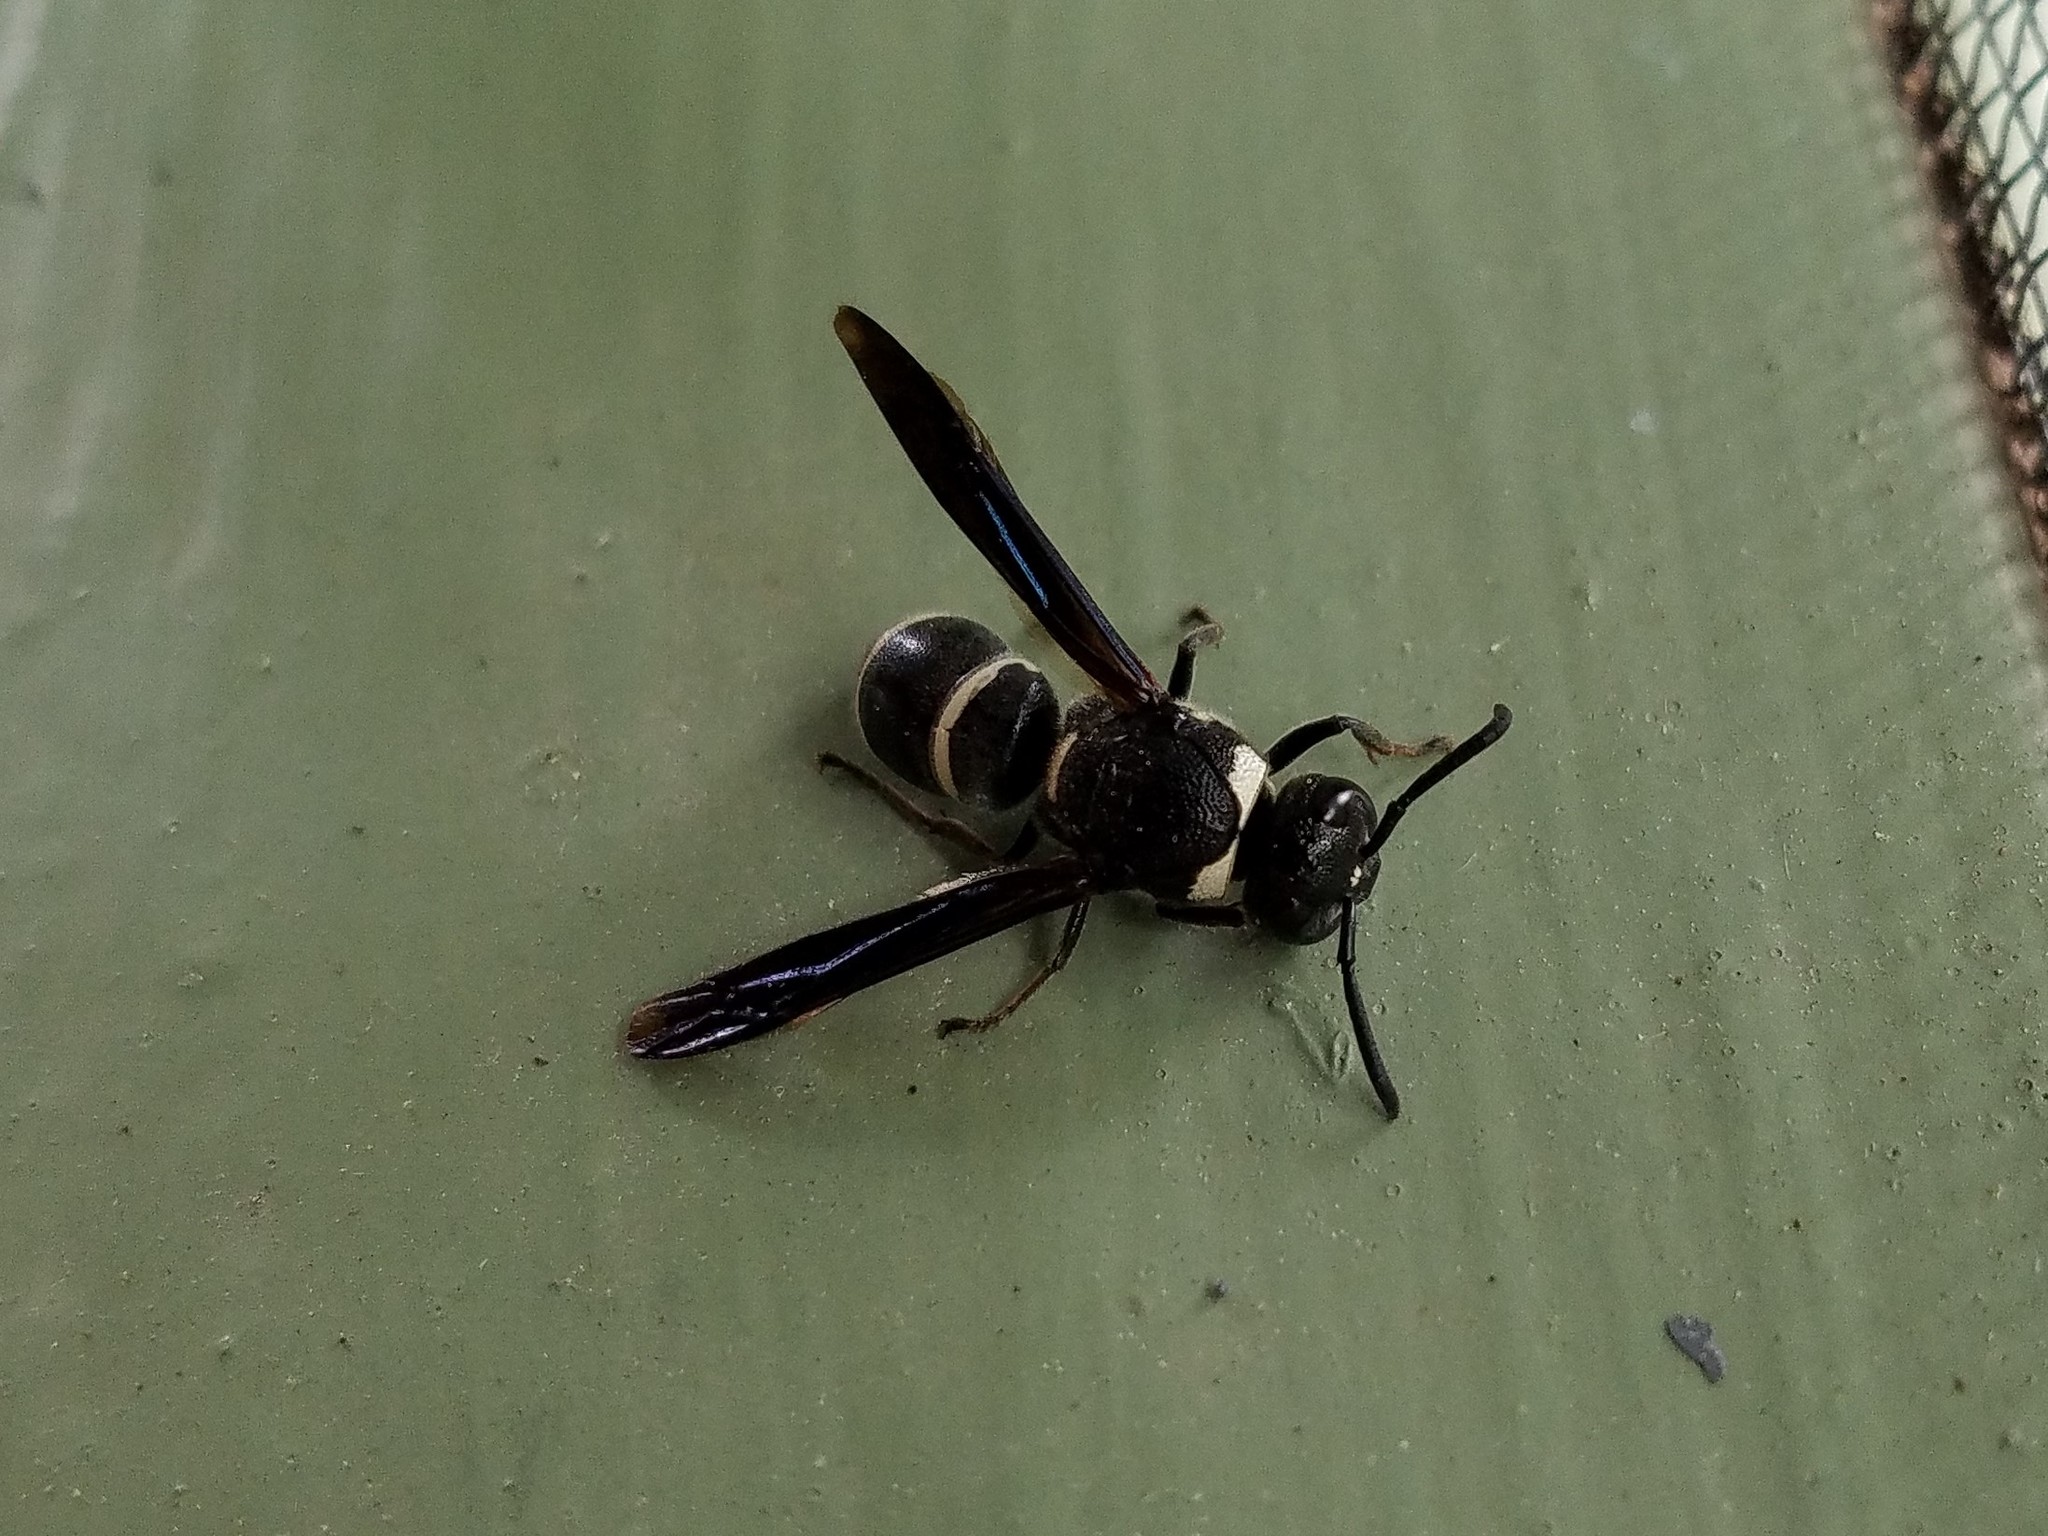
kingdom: Animalia
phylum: Arthropoda
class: Insecta
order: Hymenoptera
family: Eumenidae
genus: Euodynerus
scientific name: Euodynerus megaera
